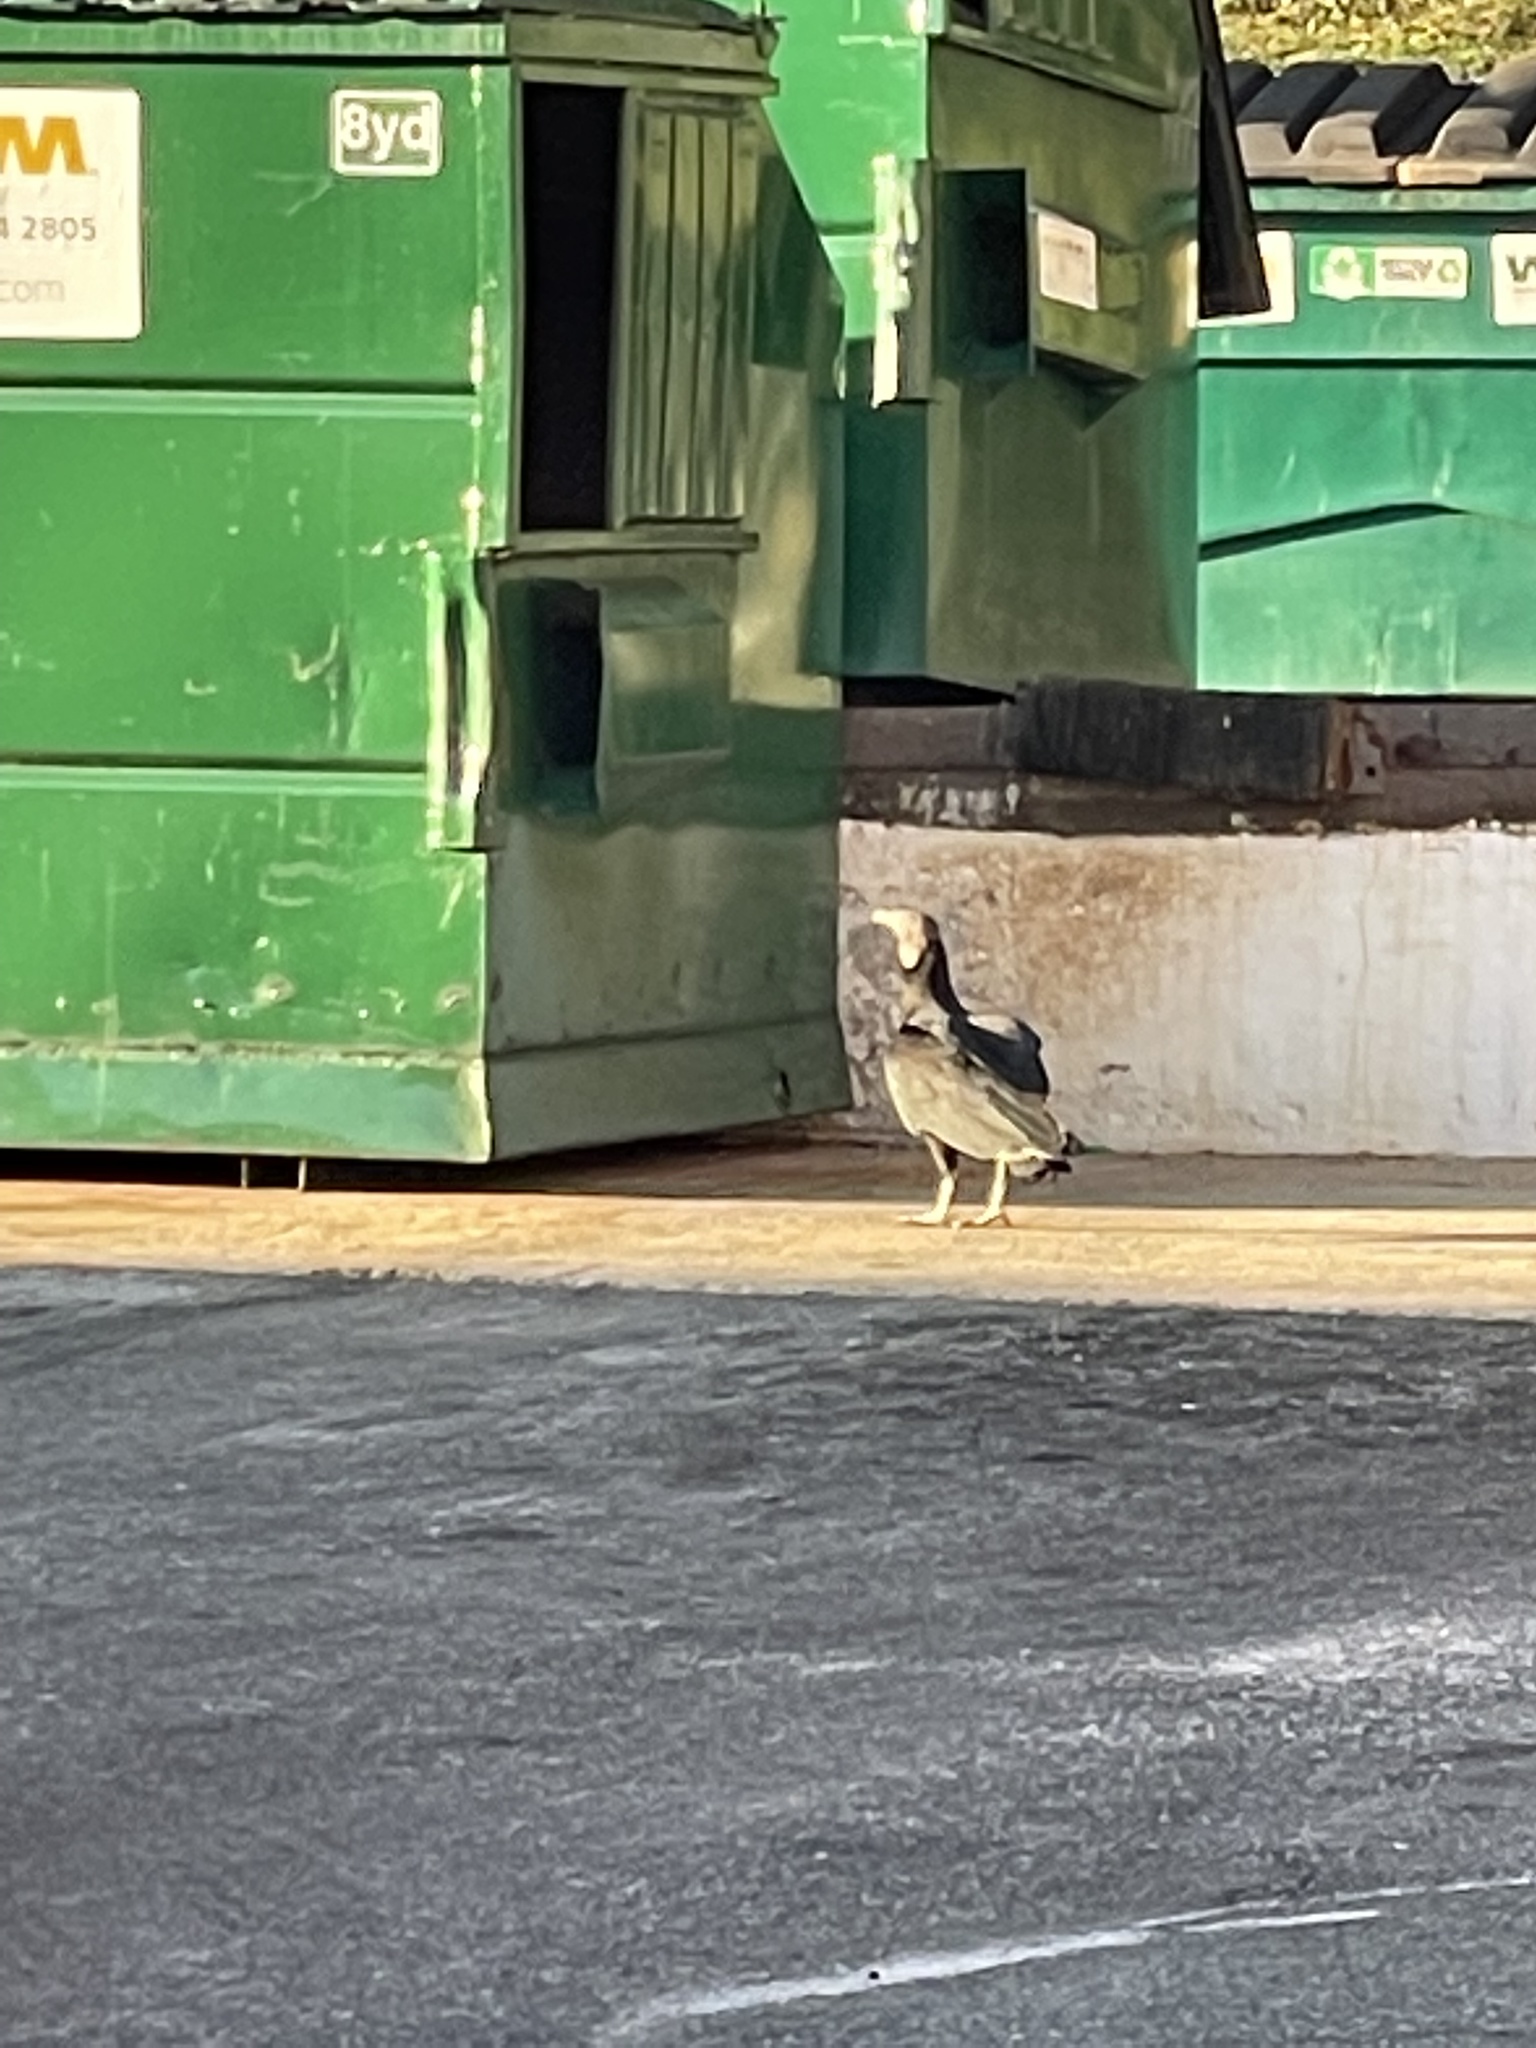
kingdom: Animalia
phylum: Chordata
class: Aves
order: Accipitriformes
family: Cathartidae
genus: Coragyps
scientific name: Coragyps atratus
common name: Black vulture
